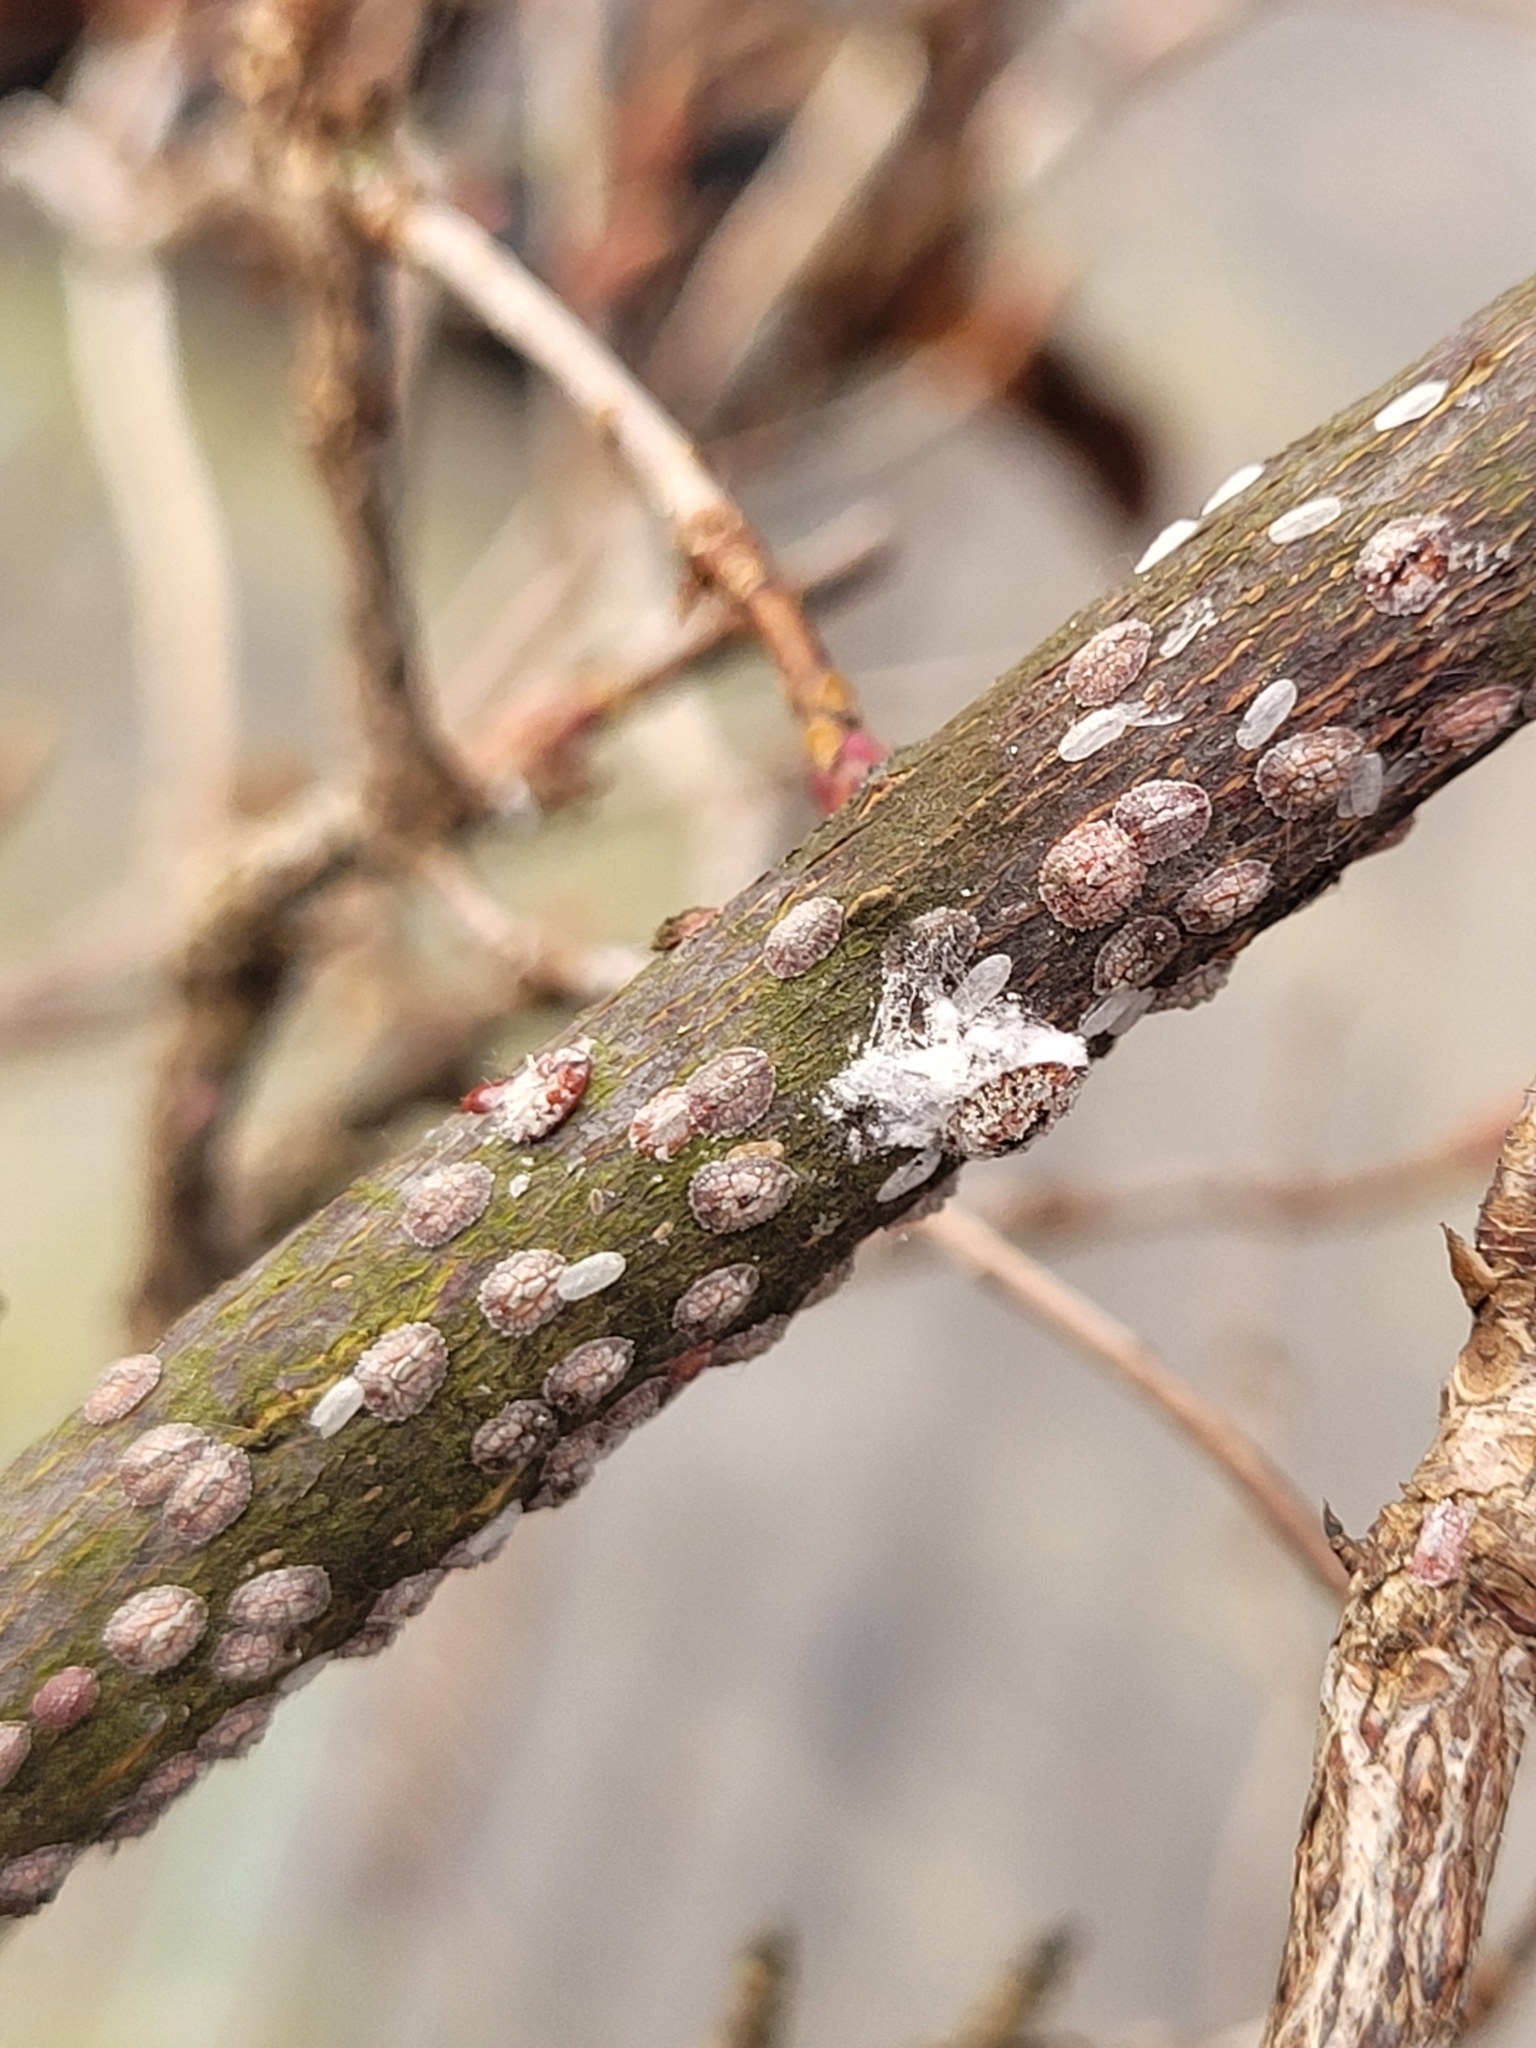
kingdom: Animalia
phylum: Arthropoda
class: Insecta
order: Hemiptera
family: Eriococcidae
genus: Eriococcus
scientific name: Eriococcus azaleae
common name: Azalea bark scale
